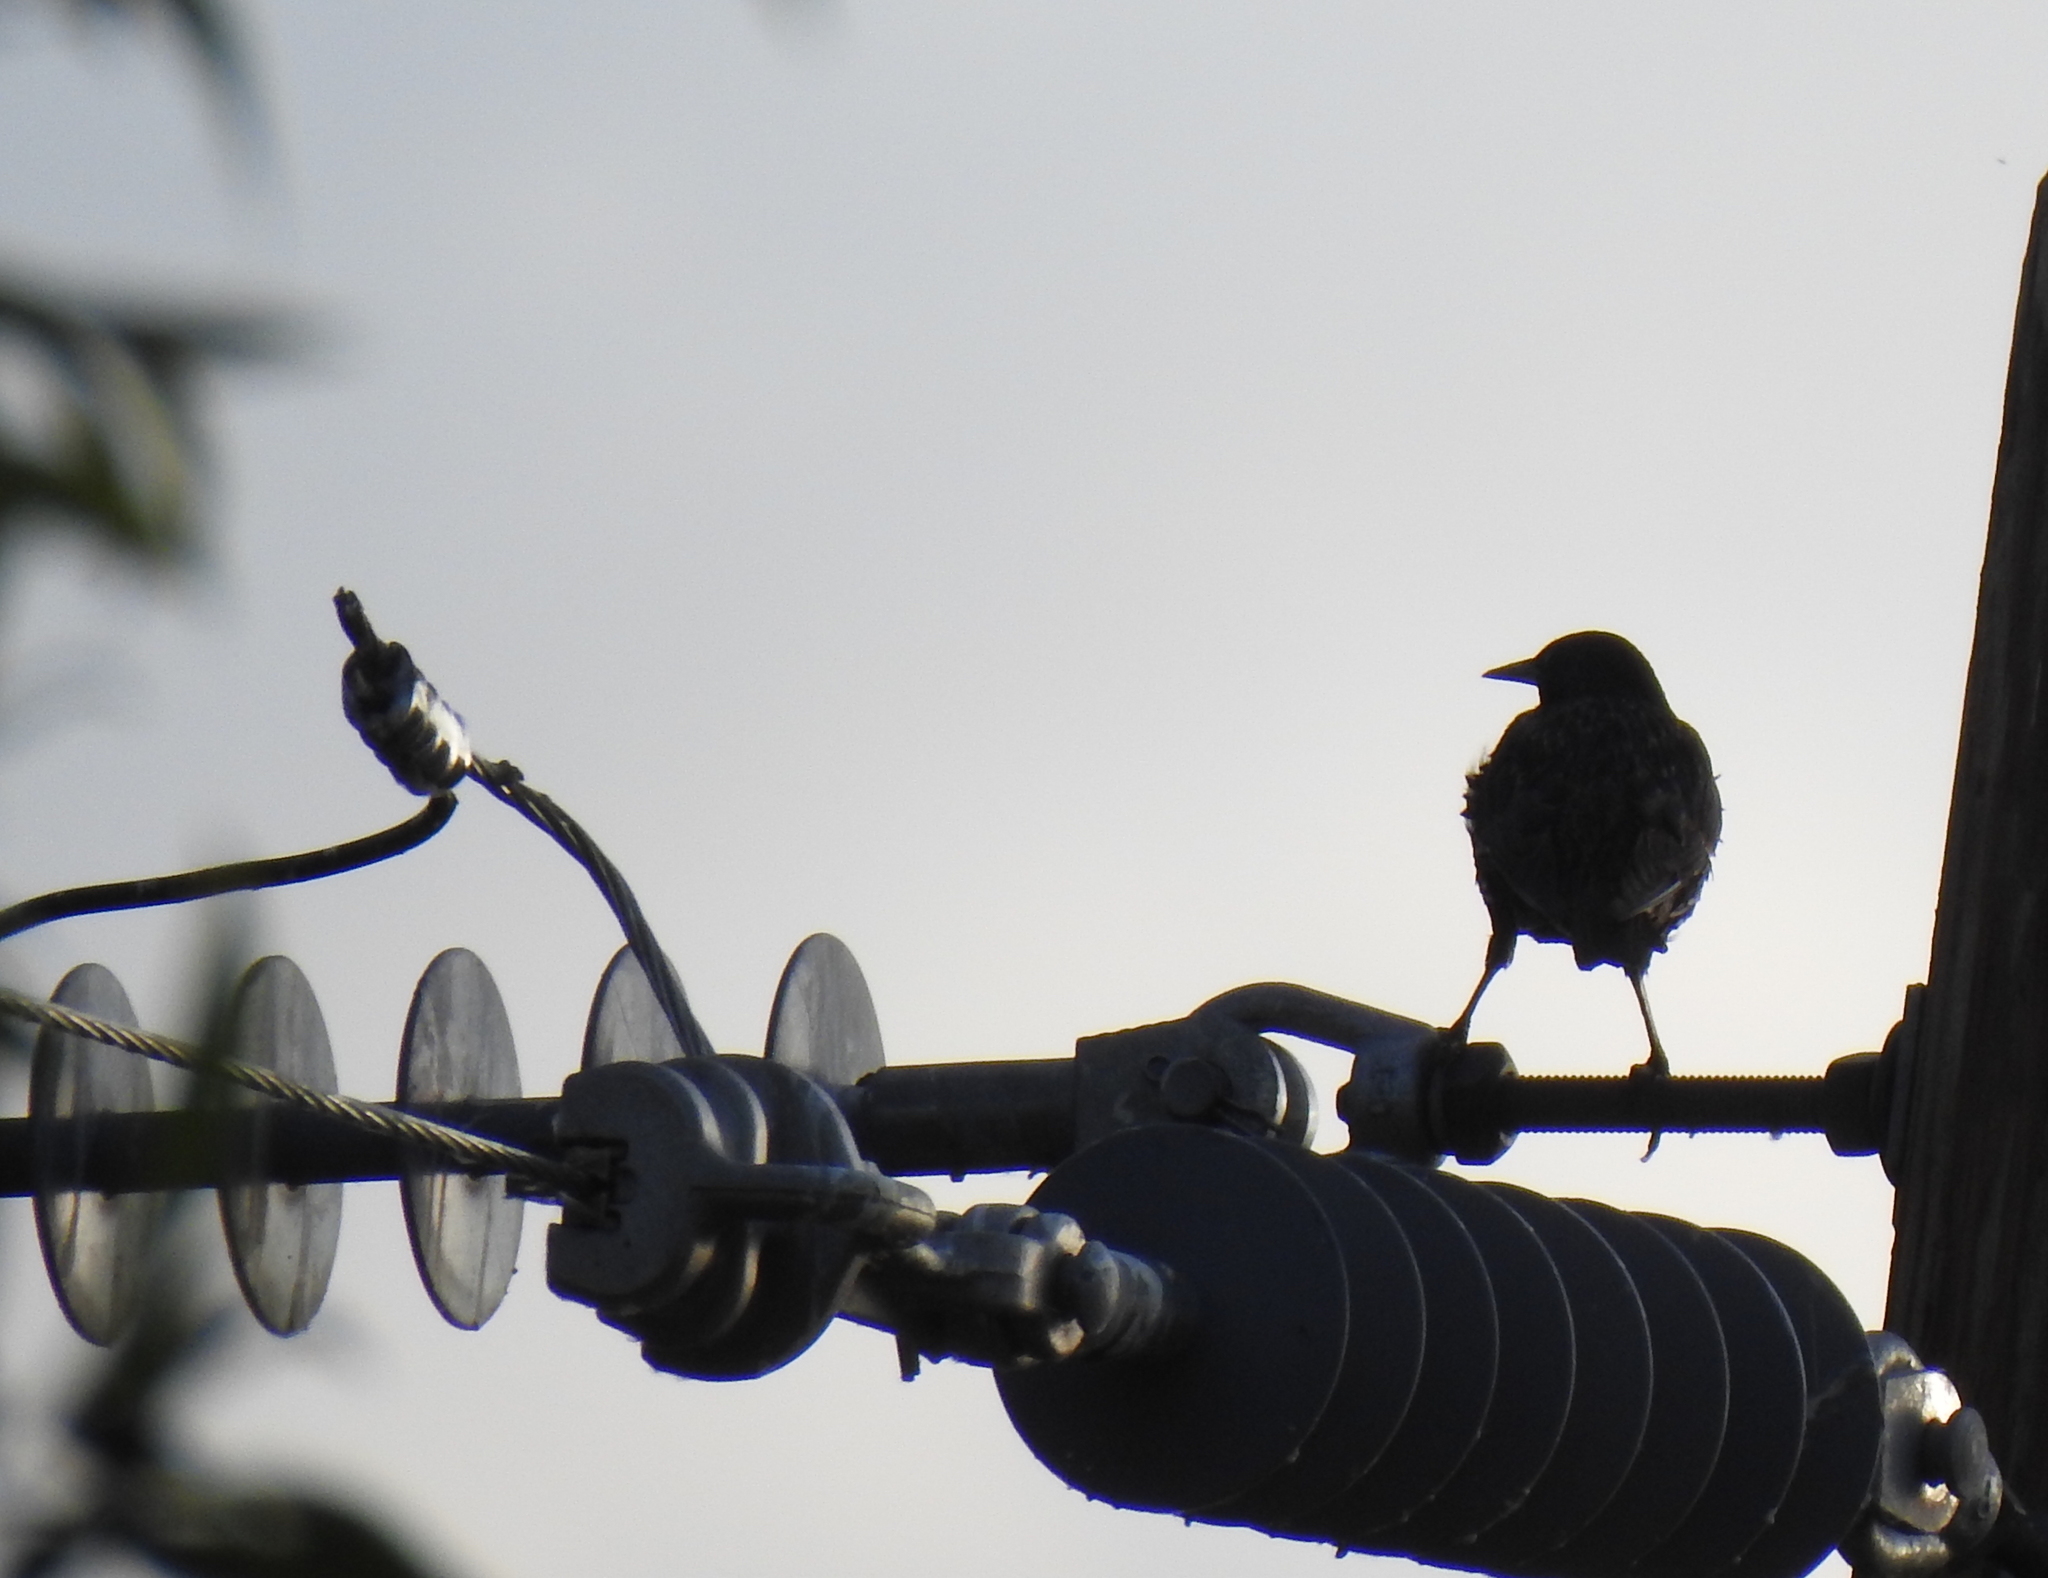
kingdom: Animalia
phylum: Chordata
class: Aves
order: Passeriformes
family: Sturnidae
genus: Sturnus
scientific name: Sturnus vulgaris
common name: Common starling
